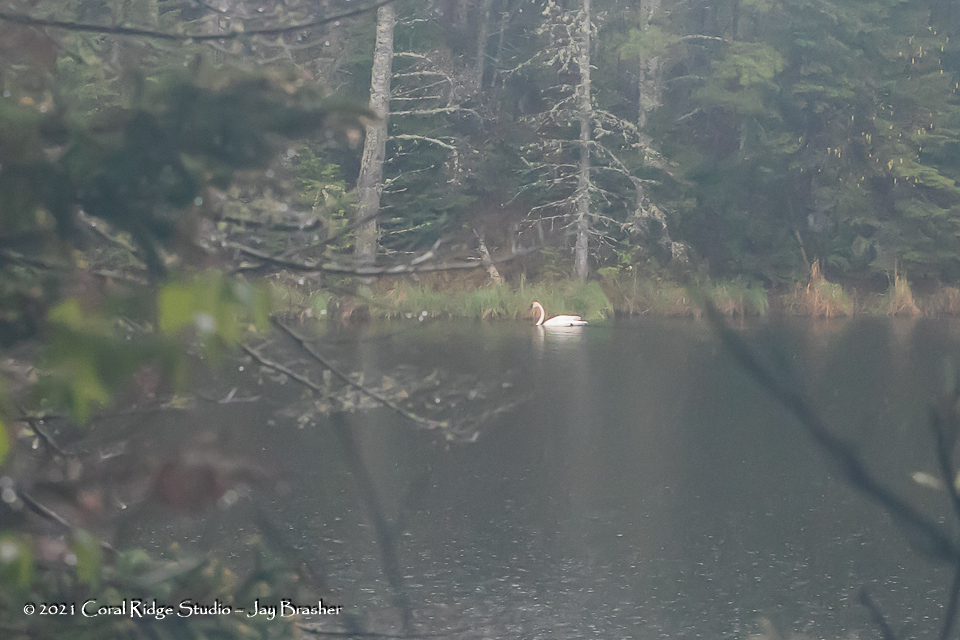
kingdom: Animalia
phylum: Chordata
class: Aves
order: Anseriformes
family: Anatidae
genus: Cygnus
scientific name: Cygnus buccinator
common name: Trumpeter swan
